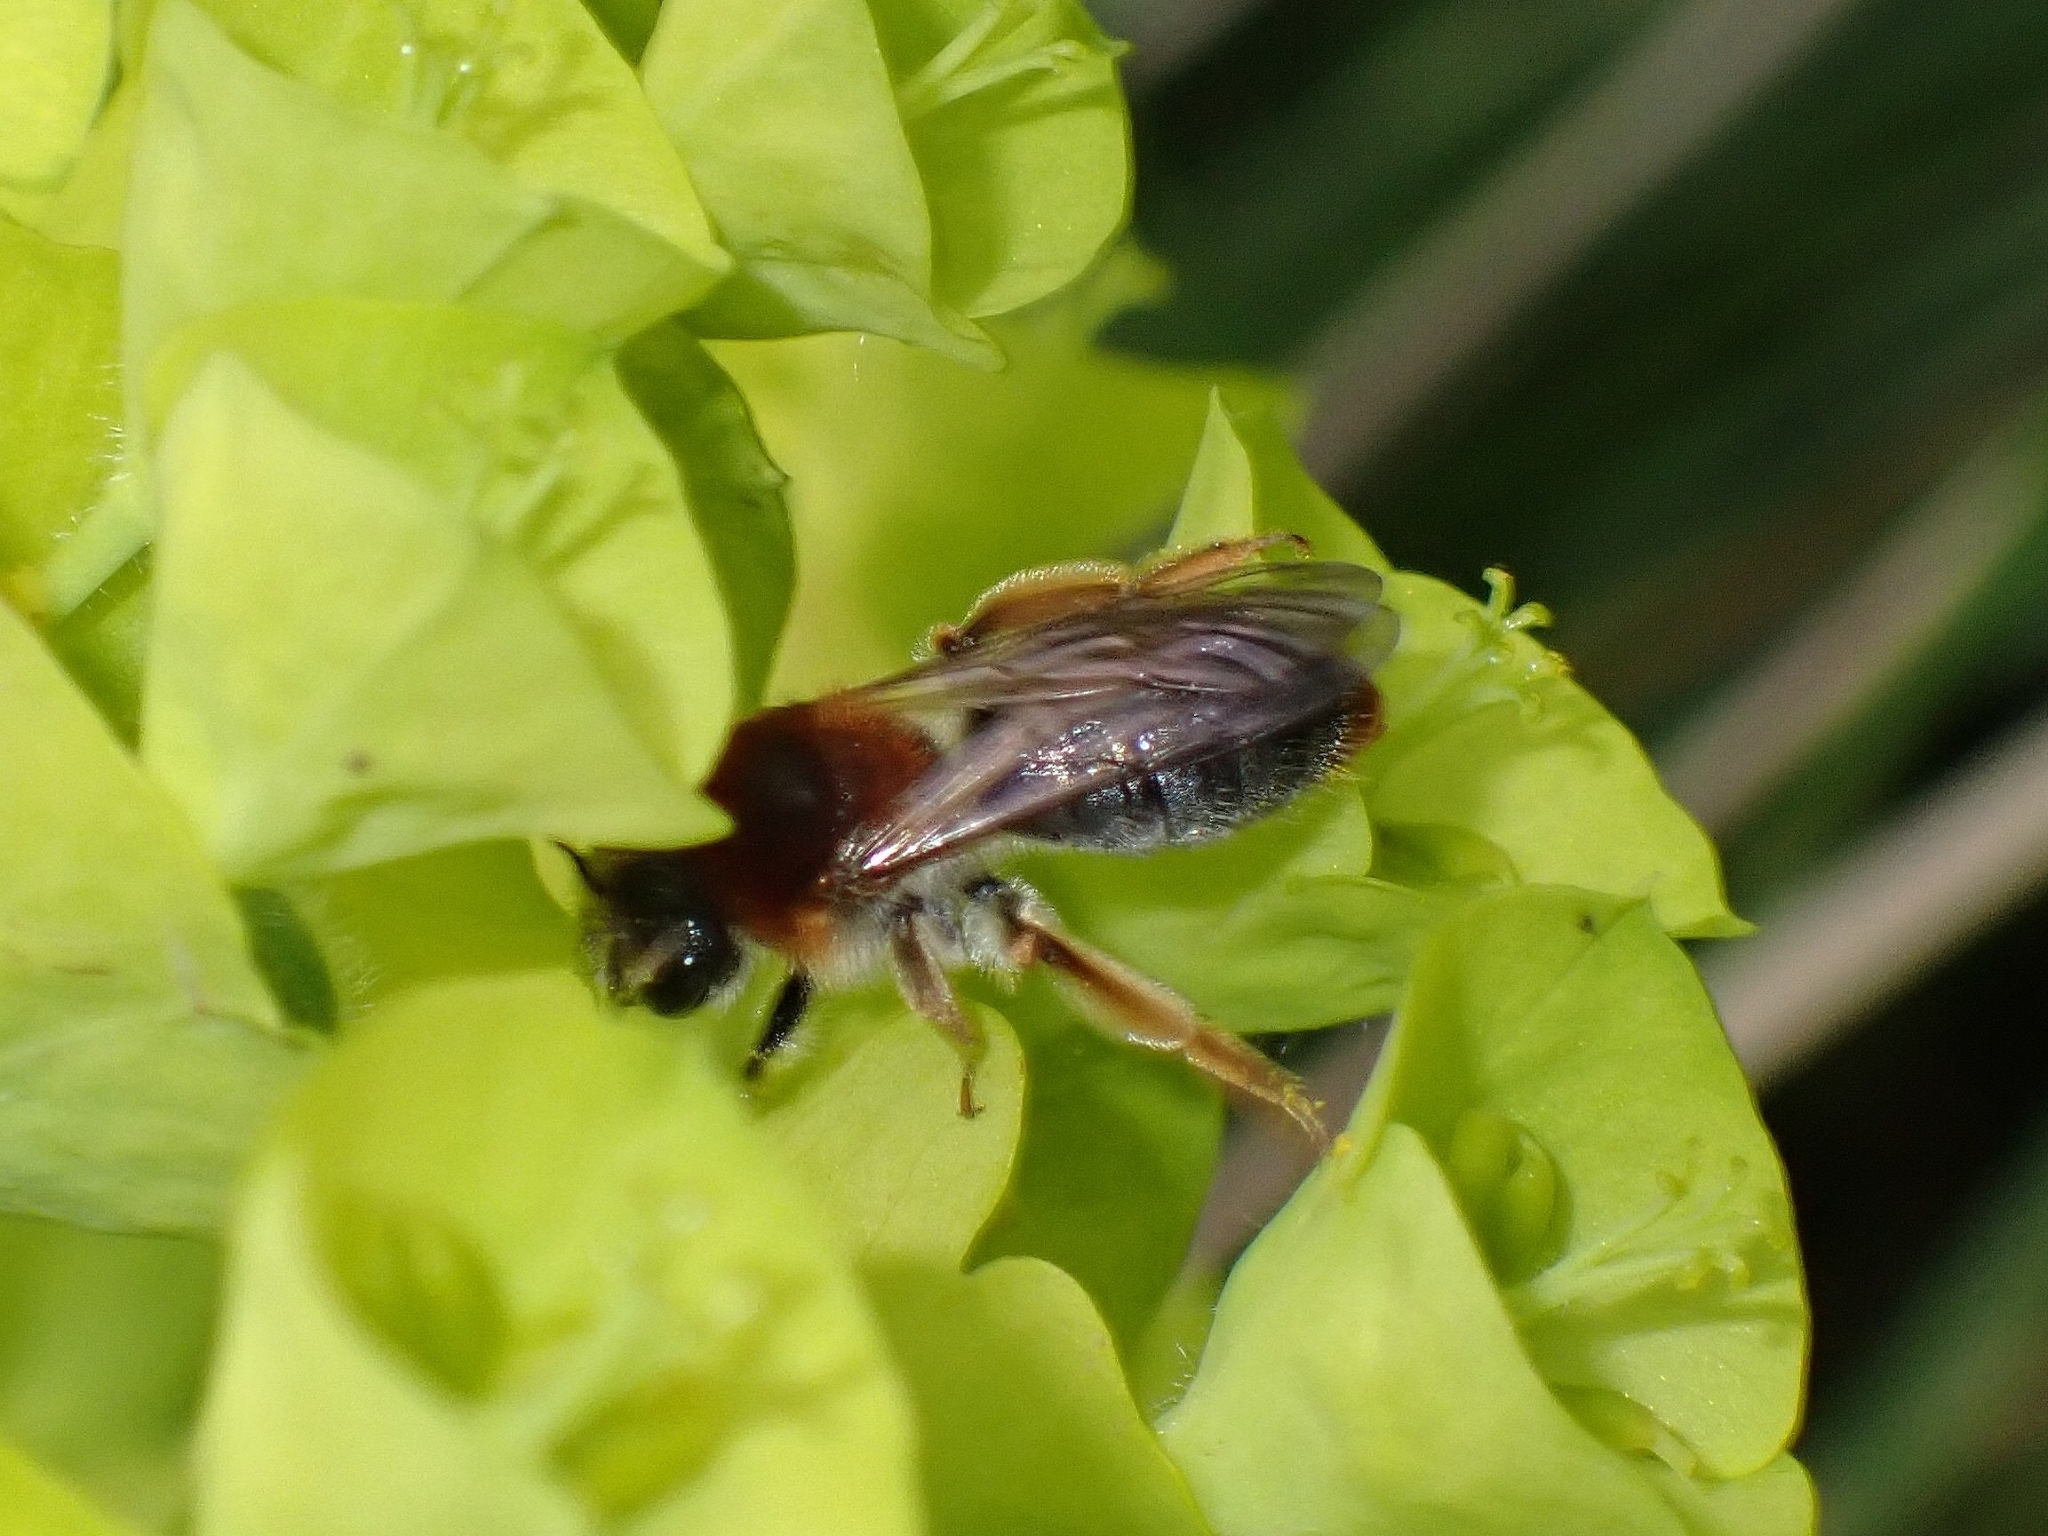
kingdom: Animalia
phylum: Arthropoda
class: Insecta
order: Hymenoptera
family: Andrenidae
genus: Andrena
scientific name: Andrena haemorrhoa
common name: Early mining bee
